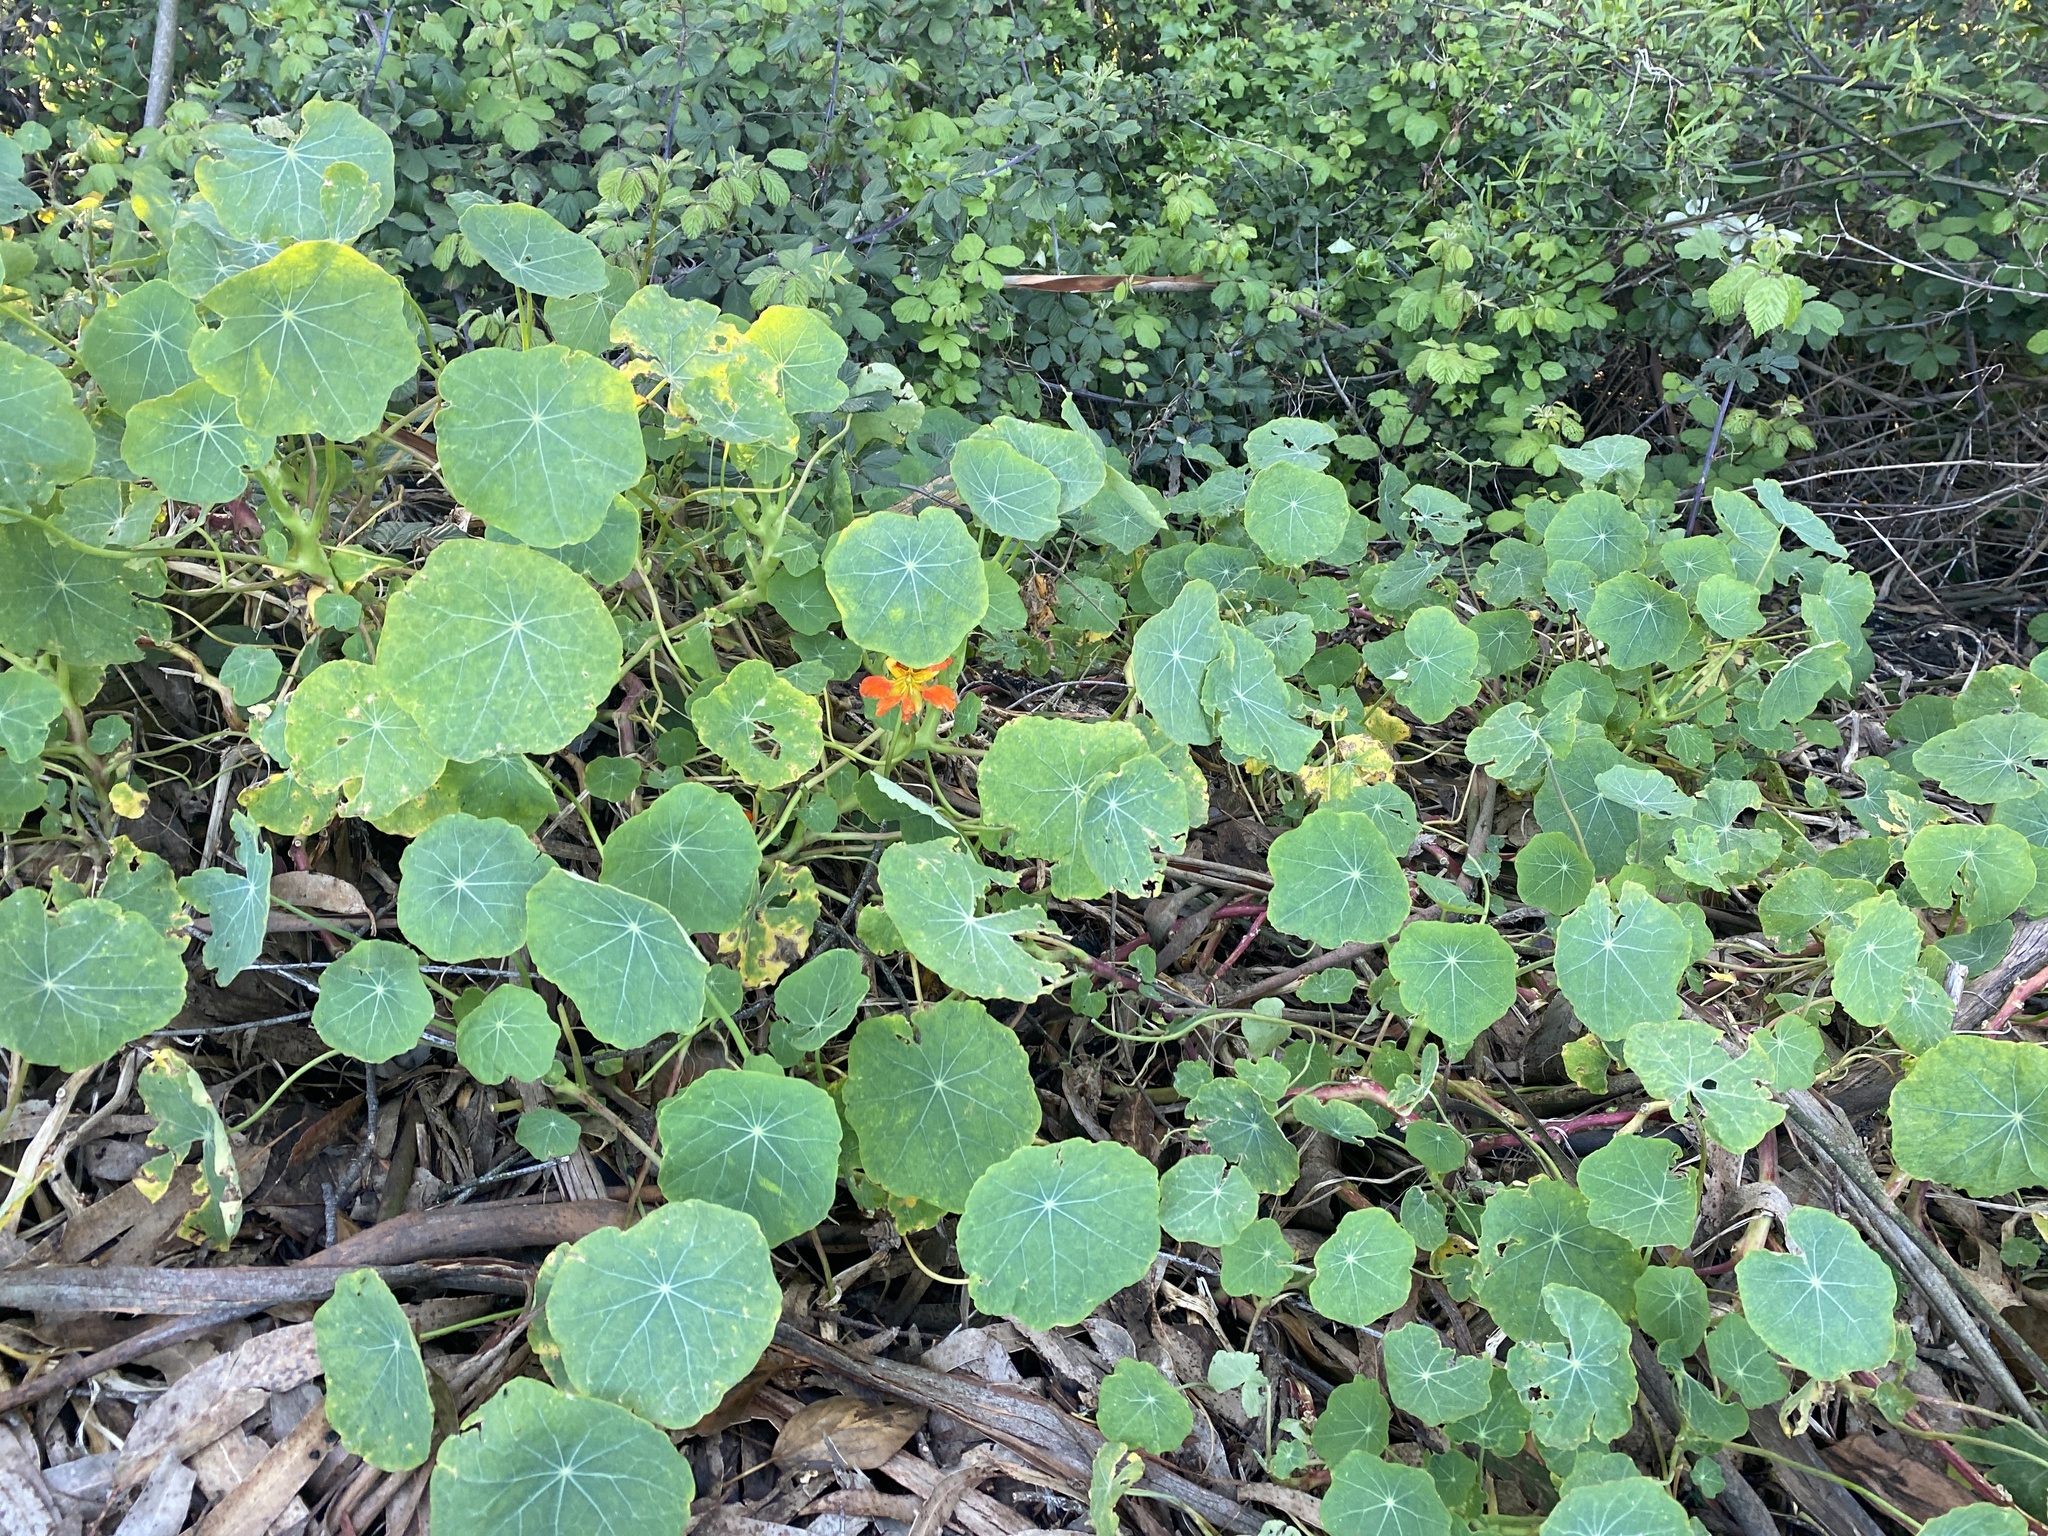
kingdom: Plantae
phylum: Tracheophyta
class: Magnoliopsida
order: Brassicales
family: Tropaeolaceae
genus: Tropaeolum
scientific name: Tropaeolum majus
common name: Nasturtium
